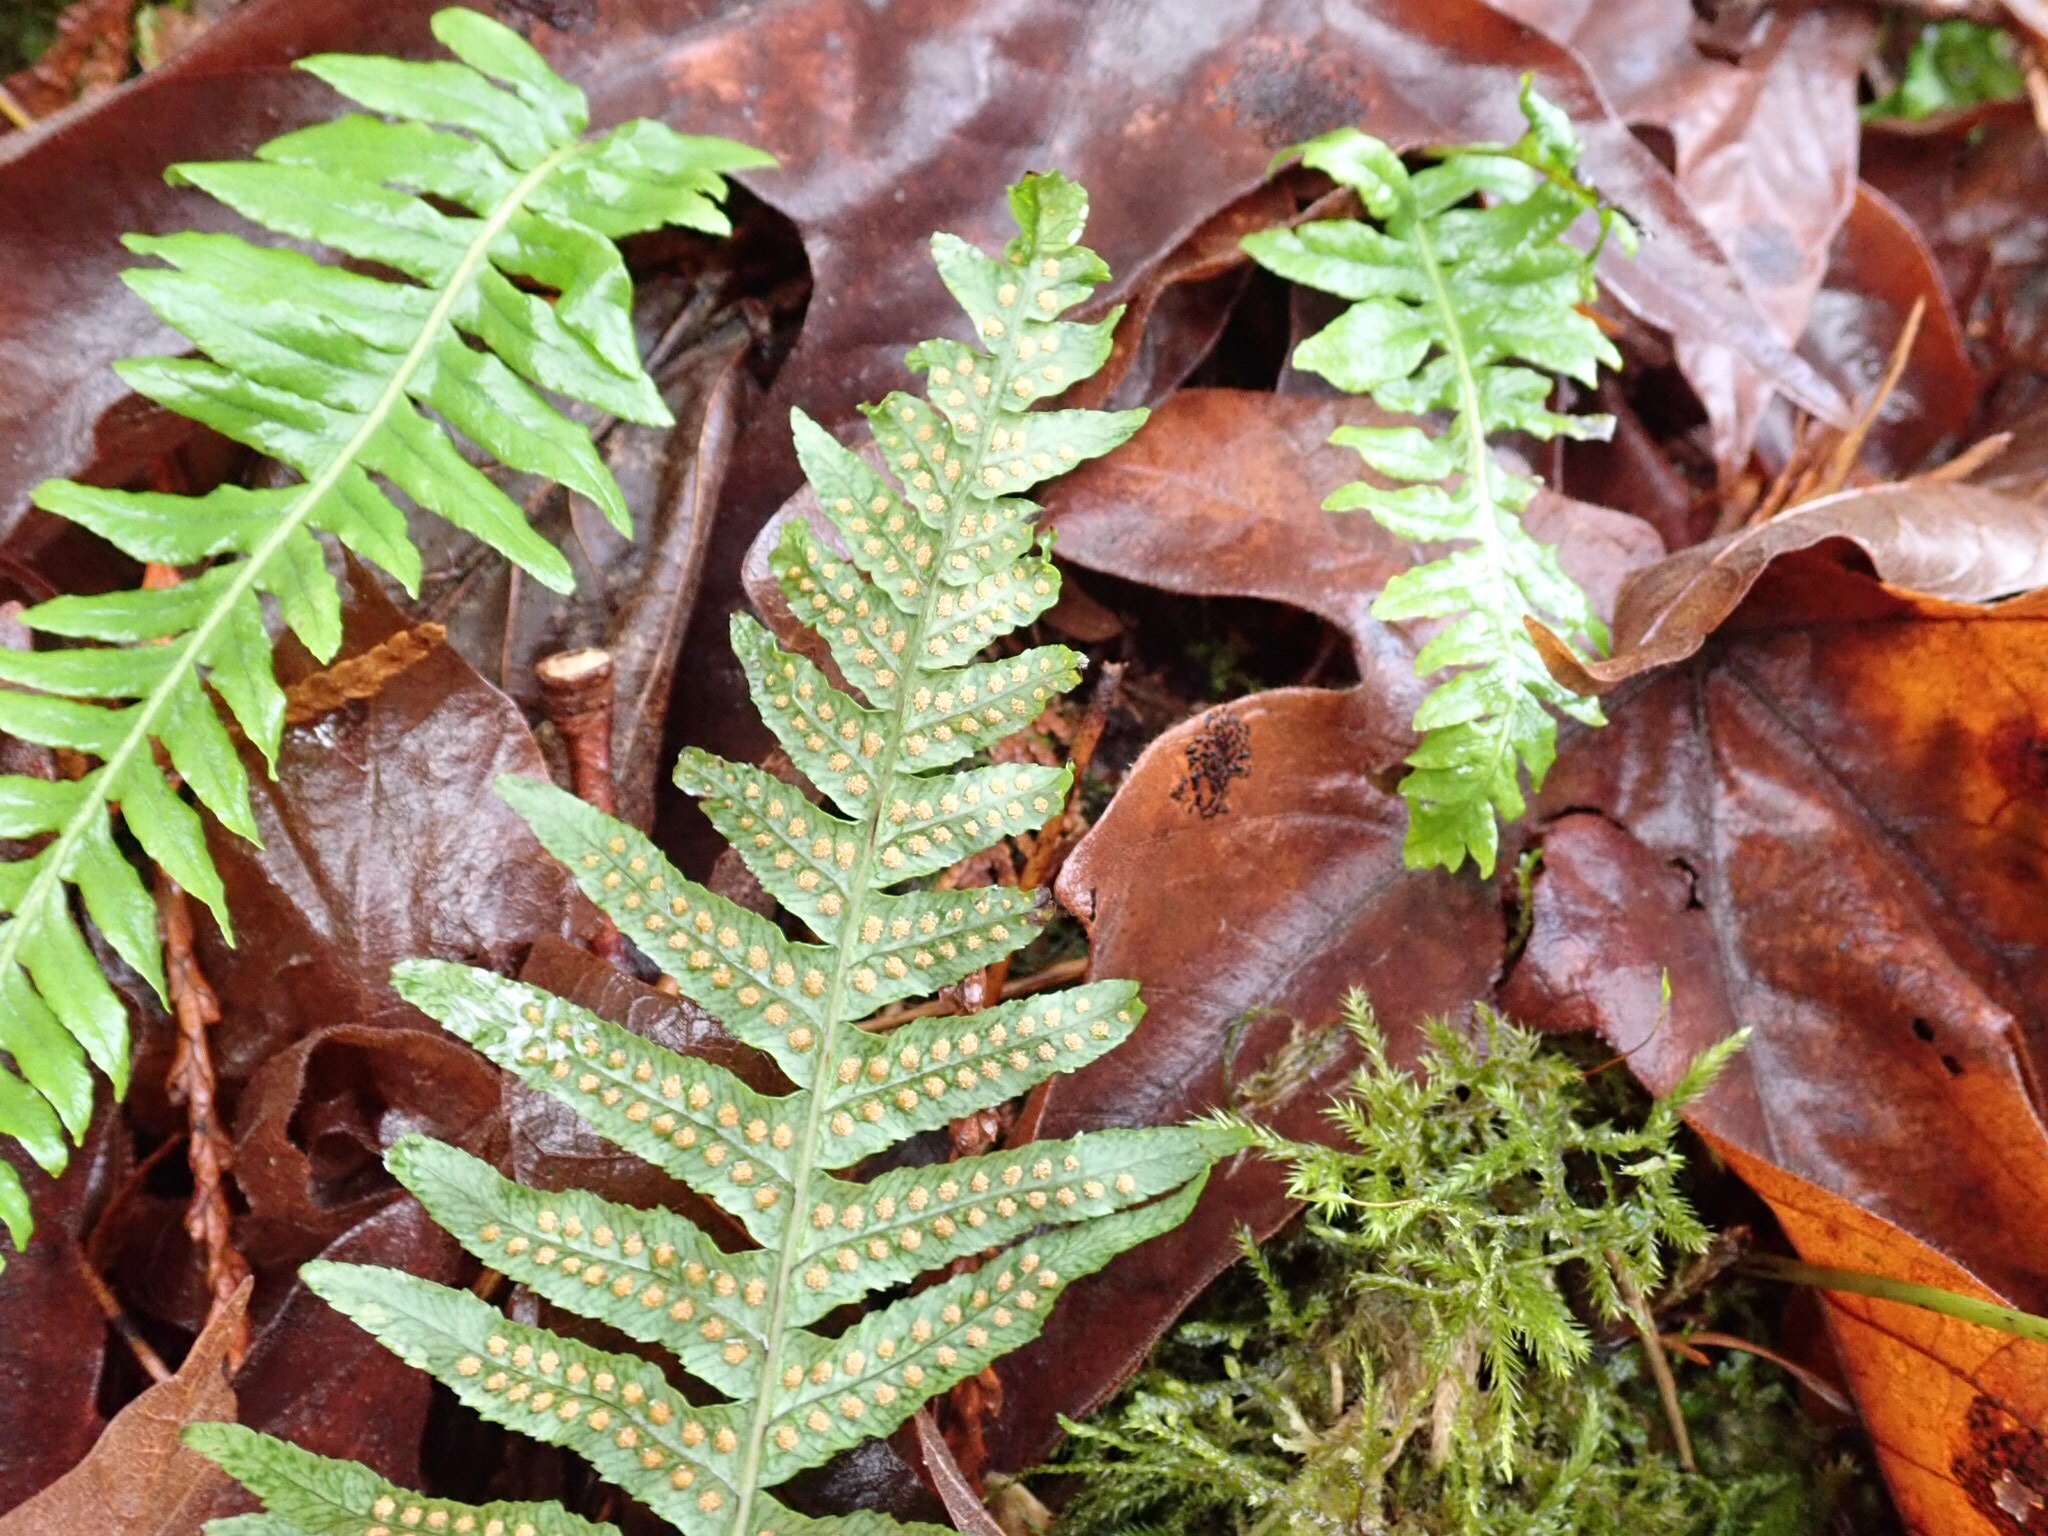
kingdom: Plantae
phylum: Tracheophyta
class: Polypodiopsida
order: Polypodiales
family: Polypodiaceae
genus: Polypodium
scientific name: Polypodium glycyrrhiza
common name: Licorice fern
